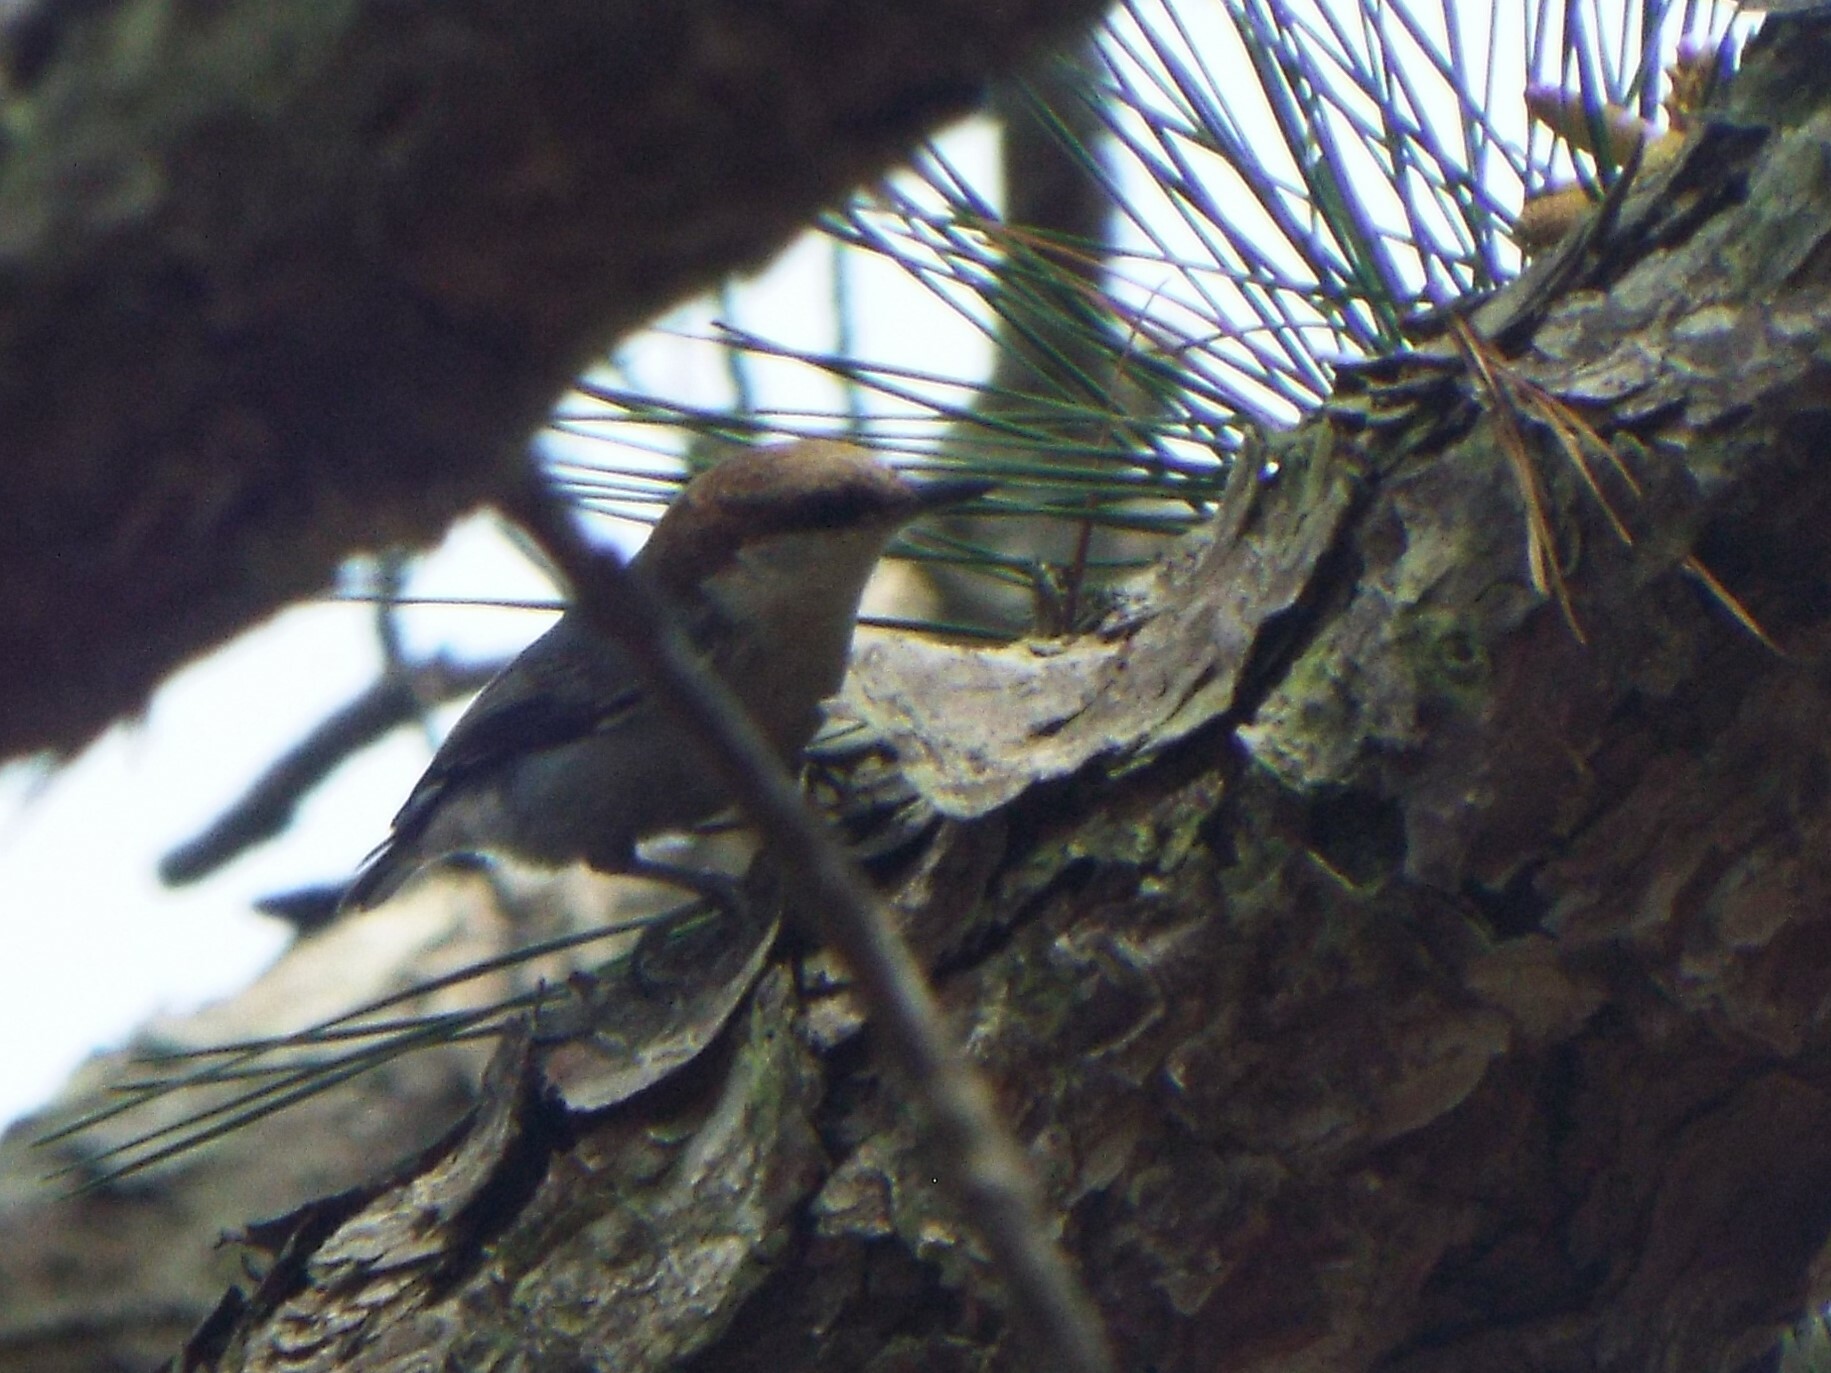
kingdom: Animalia
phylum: Chordata
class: Aves
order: Passeriformes
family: Sittidae
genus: Sitta
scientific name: Sitta pusilla
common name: Brown-headed nuthatch
